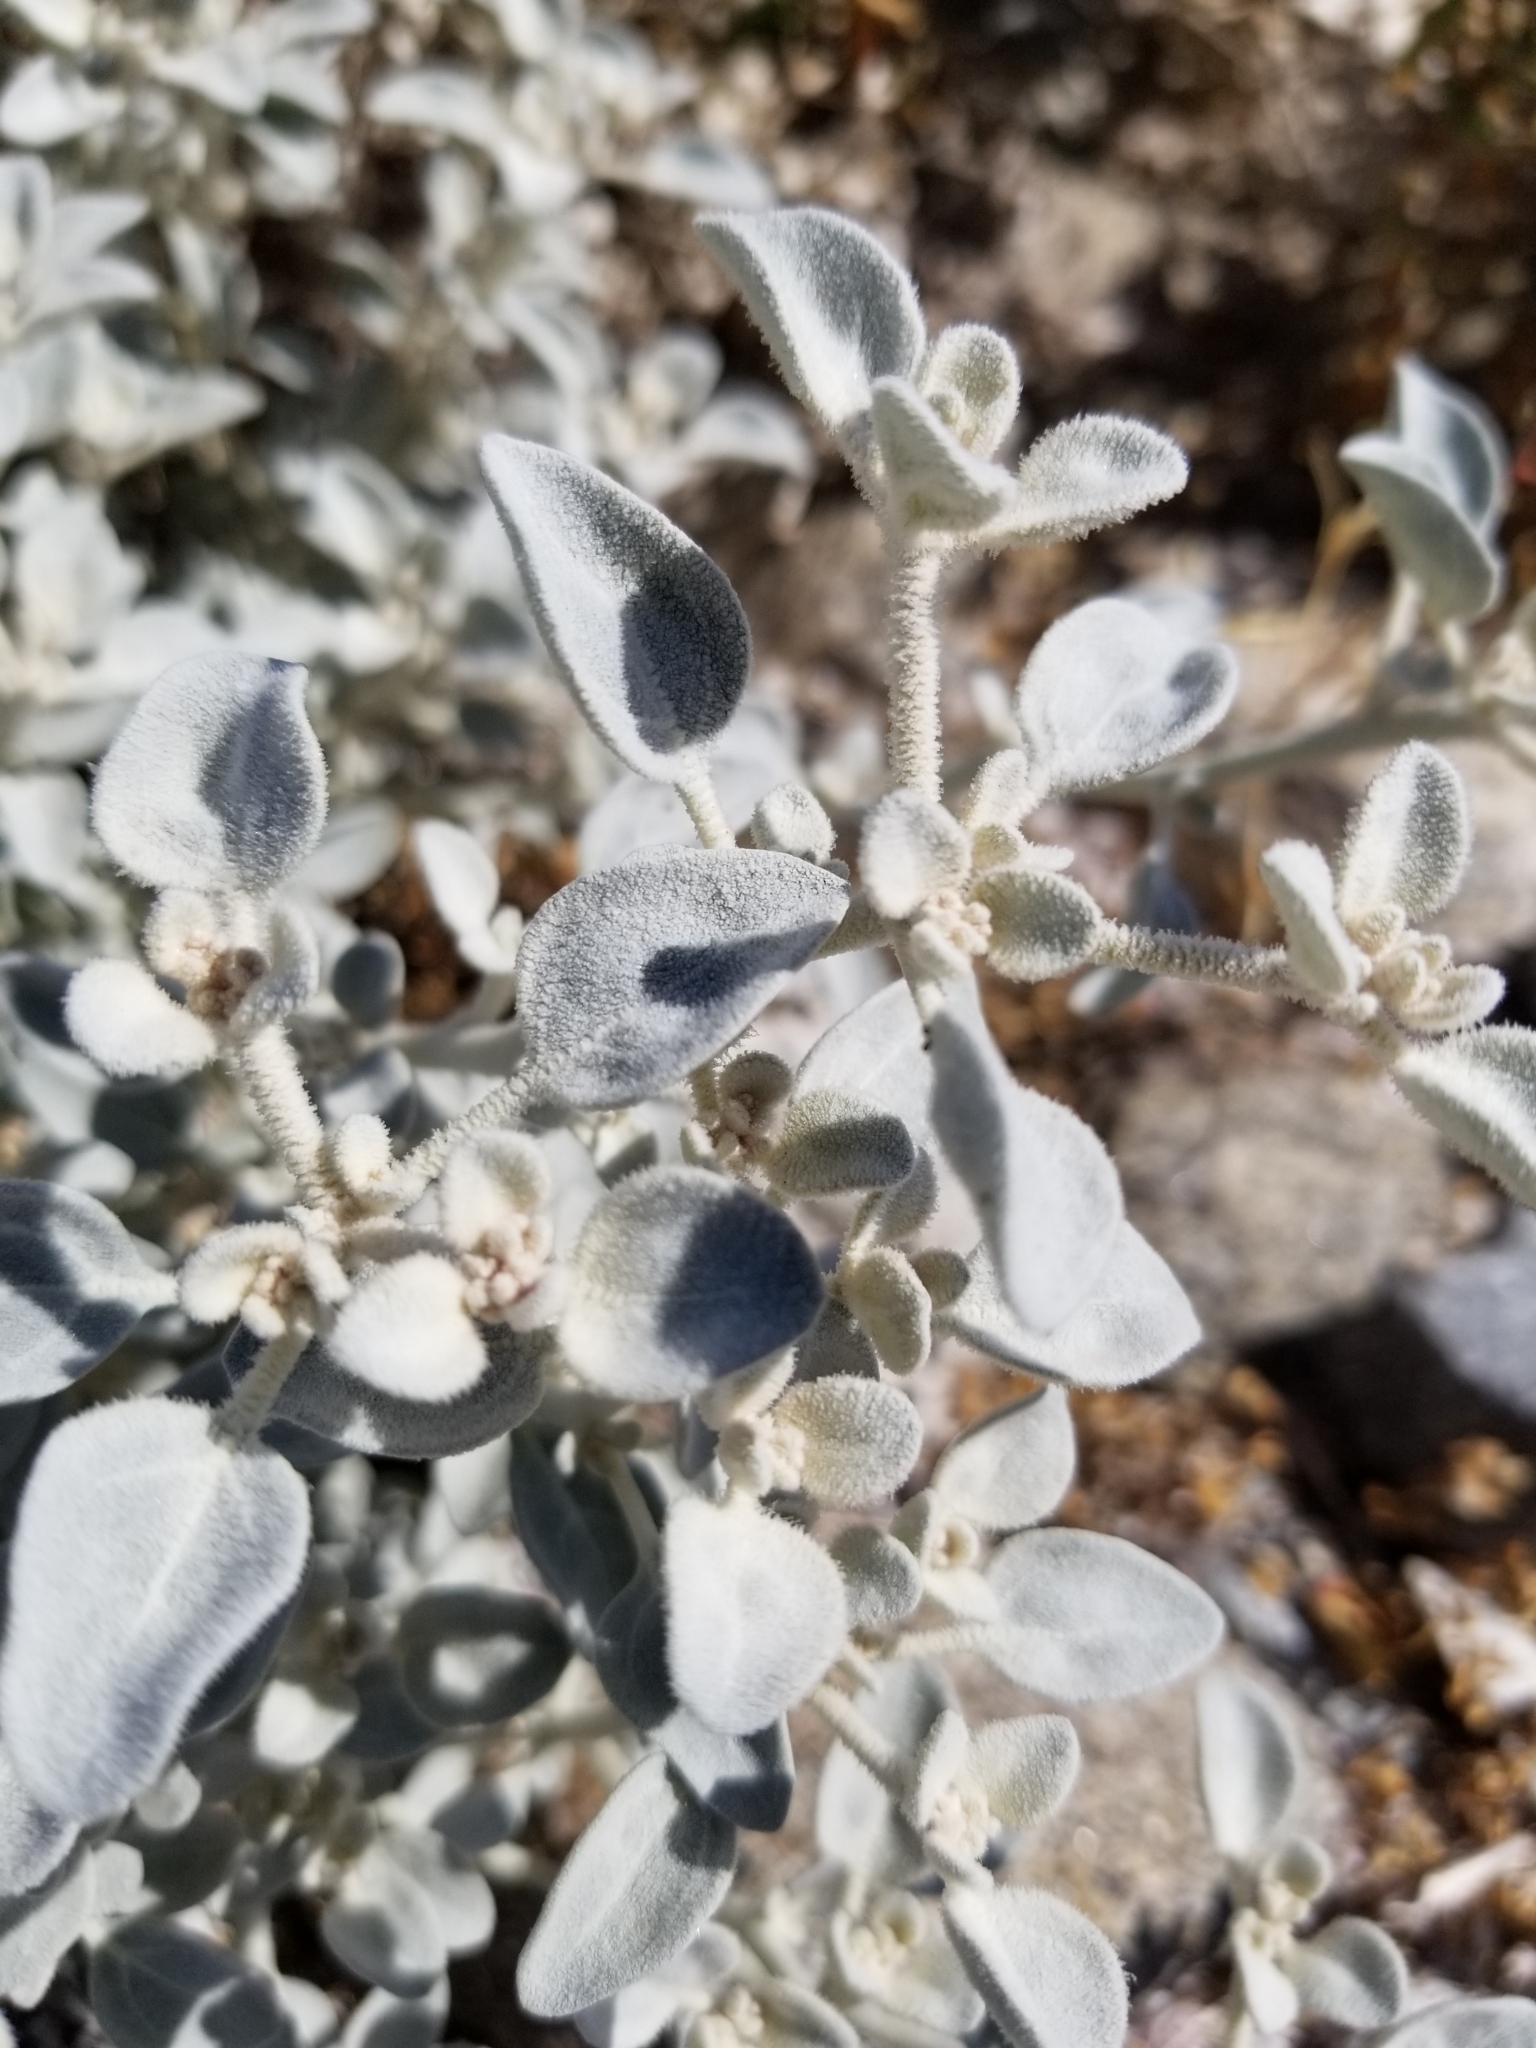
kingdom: Plantae
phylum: Tracheophyta
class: Magnoliopsida
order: Caryophyllales
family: Amaranthaceae
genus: Tidestromia
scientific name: Tidestromia suffruticosa
